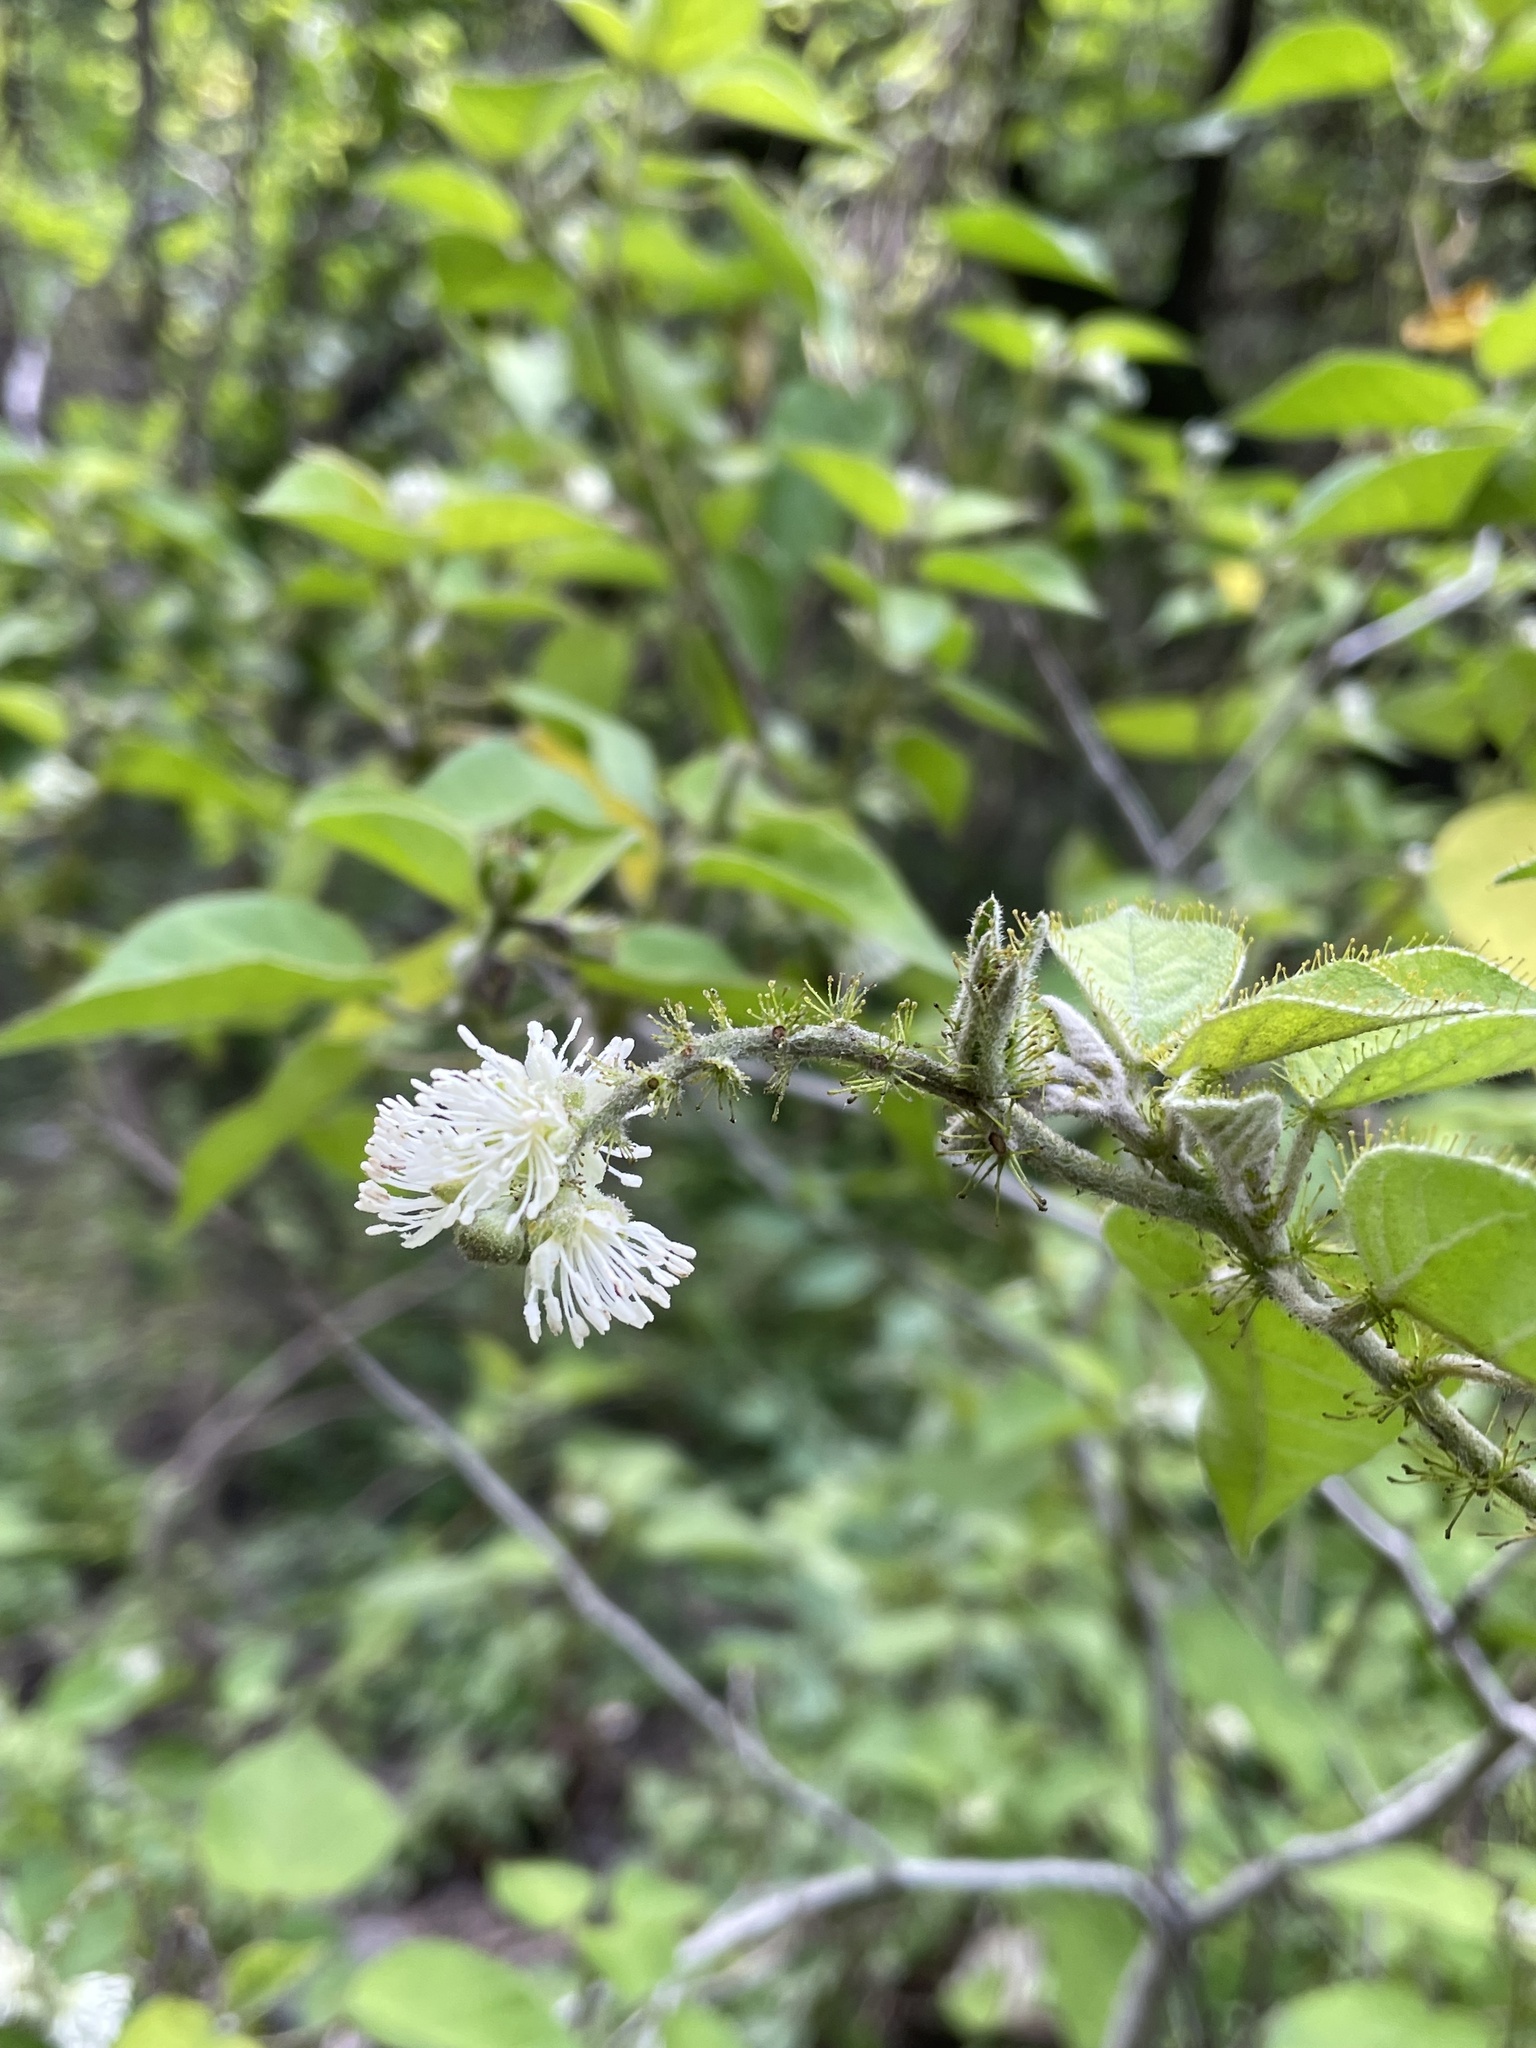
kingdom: Plantae
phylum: Tracheophyta
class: Magnoliopsida
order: Malpighiales
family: Euphorbiaceae
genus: Croton
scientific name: Croton ciliatoglandulifer
